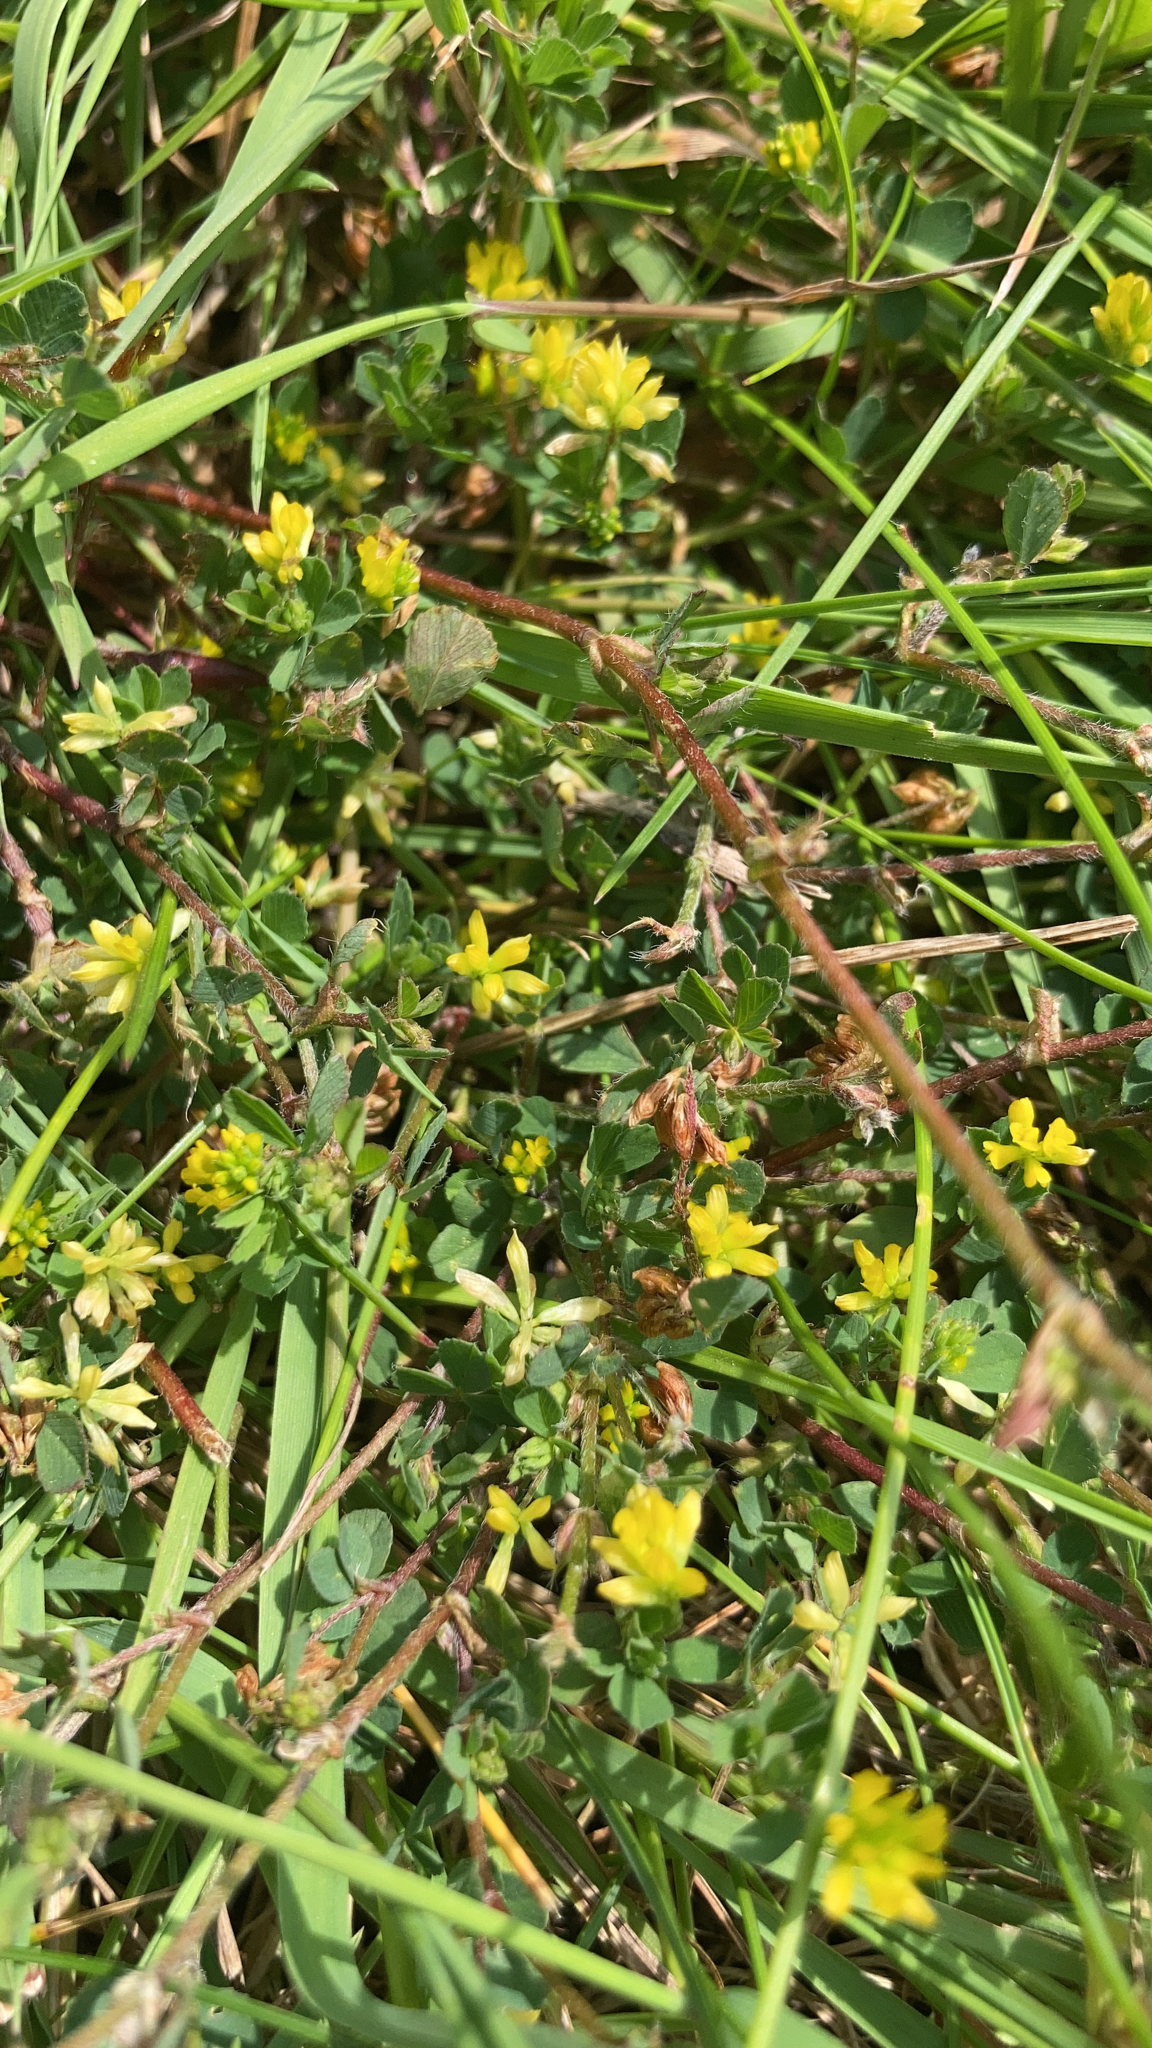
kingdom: Plantae
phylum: Tracheophyta
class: Magnoliopsida
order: Fabales
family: Fabaceae
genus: Trifolium
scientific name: Trifolium dubium
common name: Suckling clover
